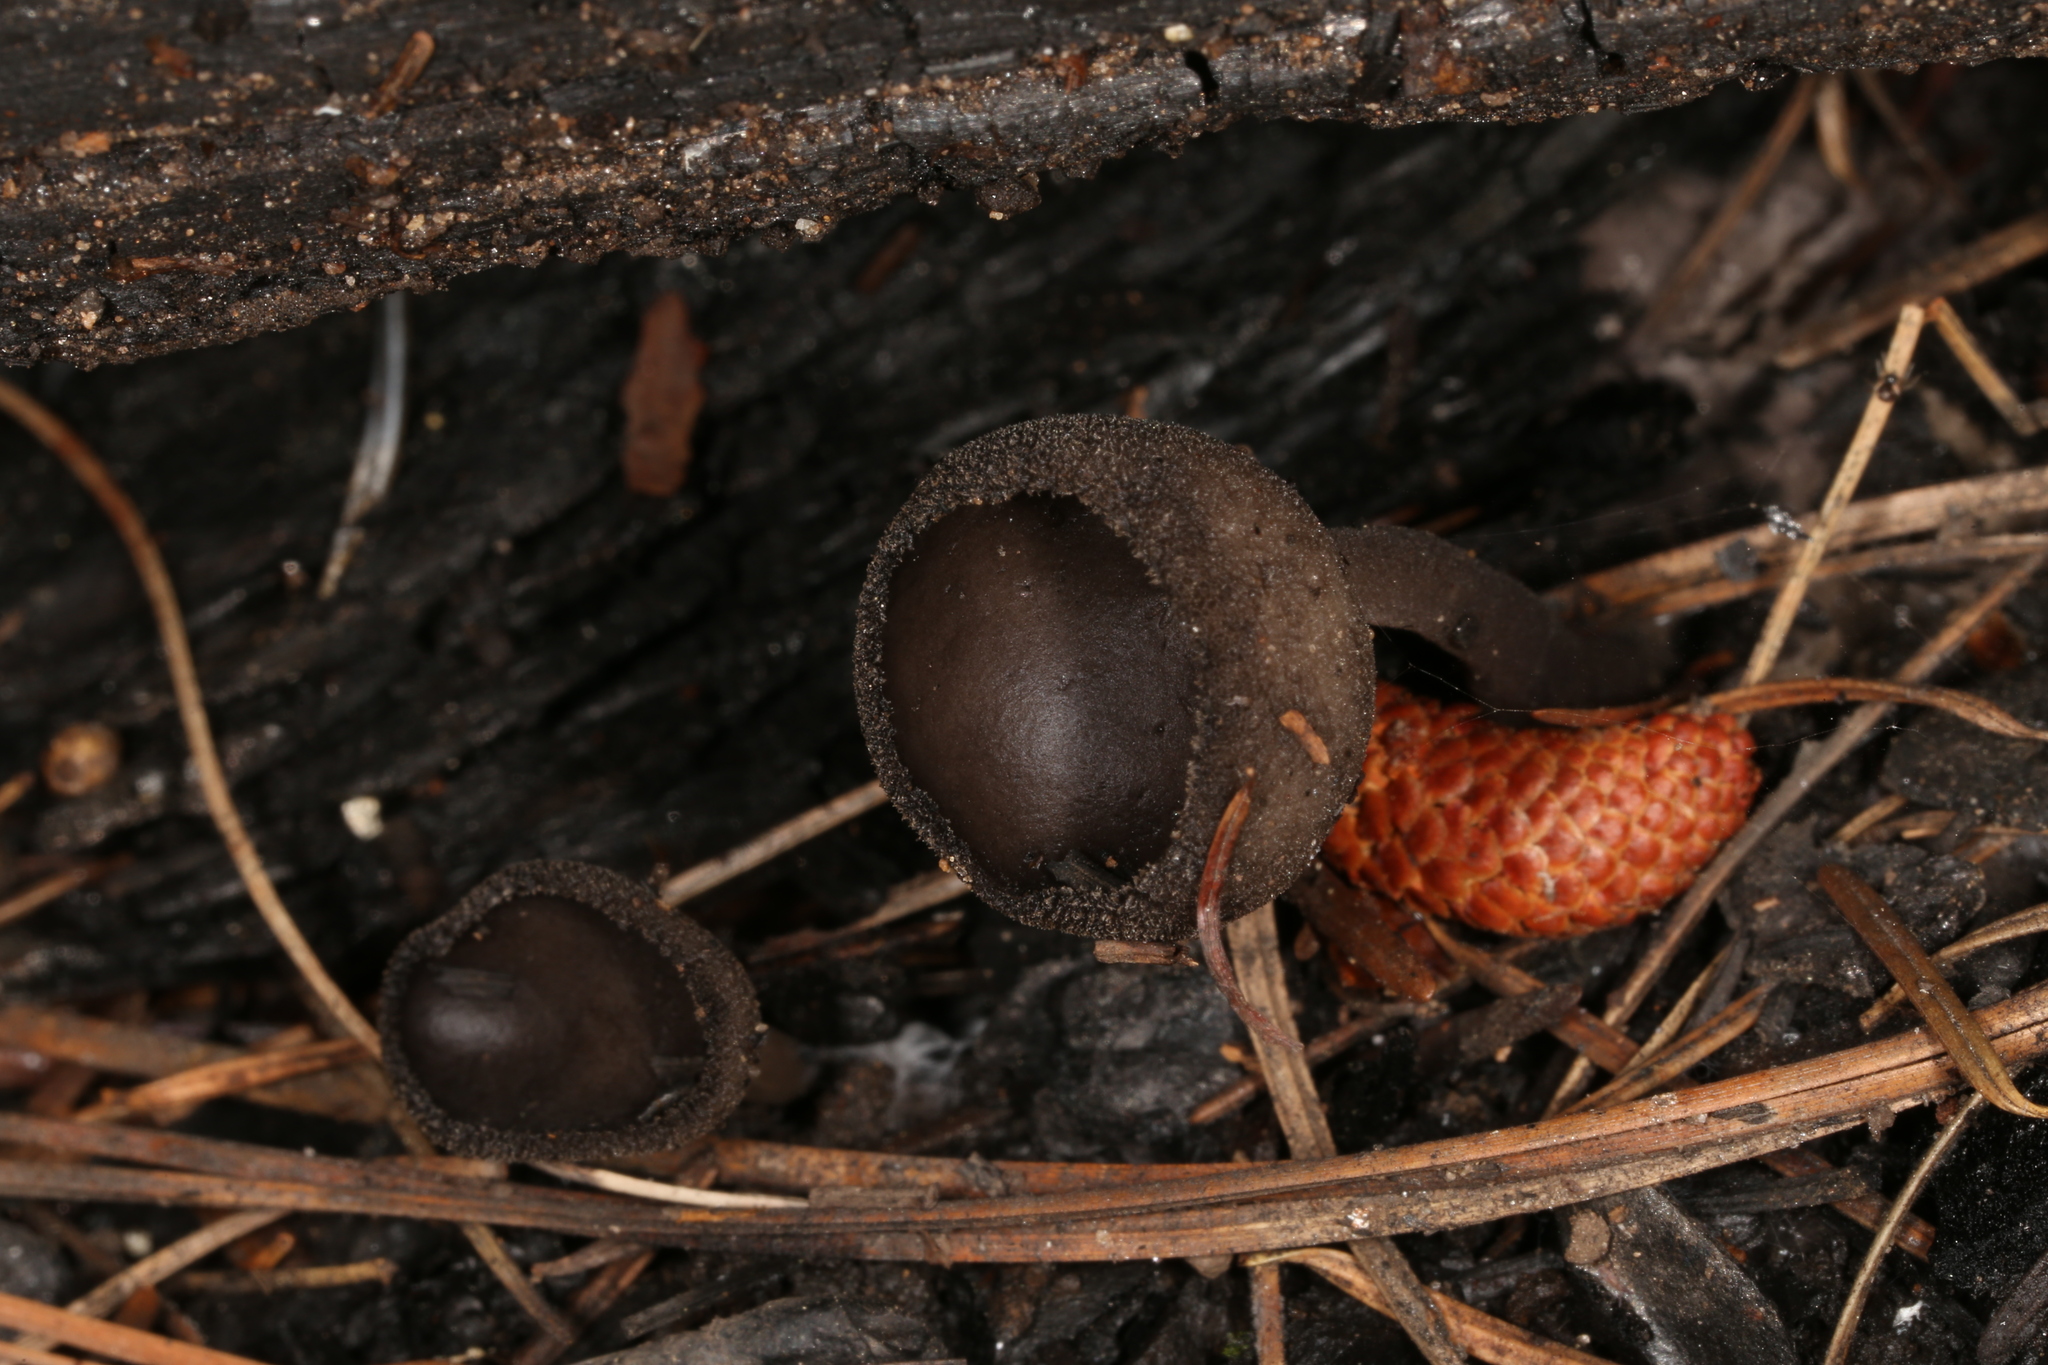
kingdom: Fungi
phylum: Ascomycota
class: Pezizomycetes
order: Pezizales
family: Helvellaceae
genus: Helvella
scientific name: Helvella macropus
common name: Felt saddle
